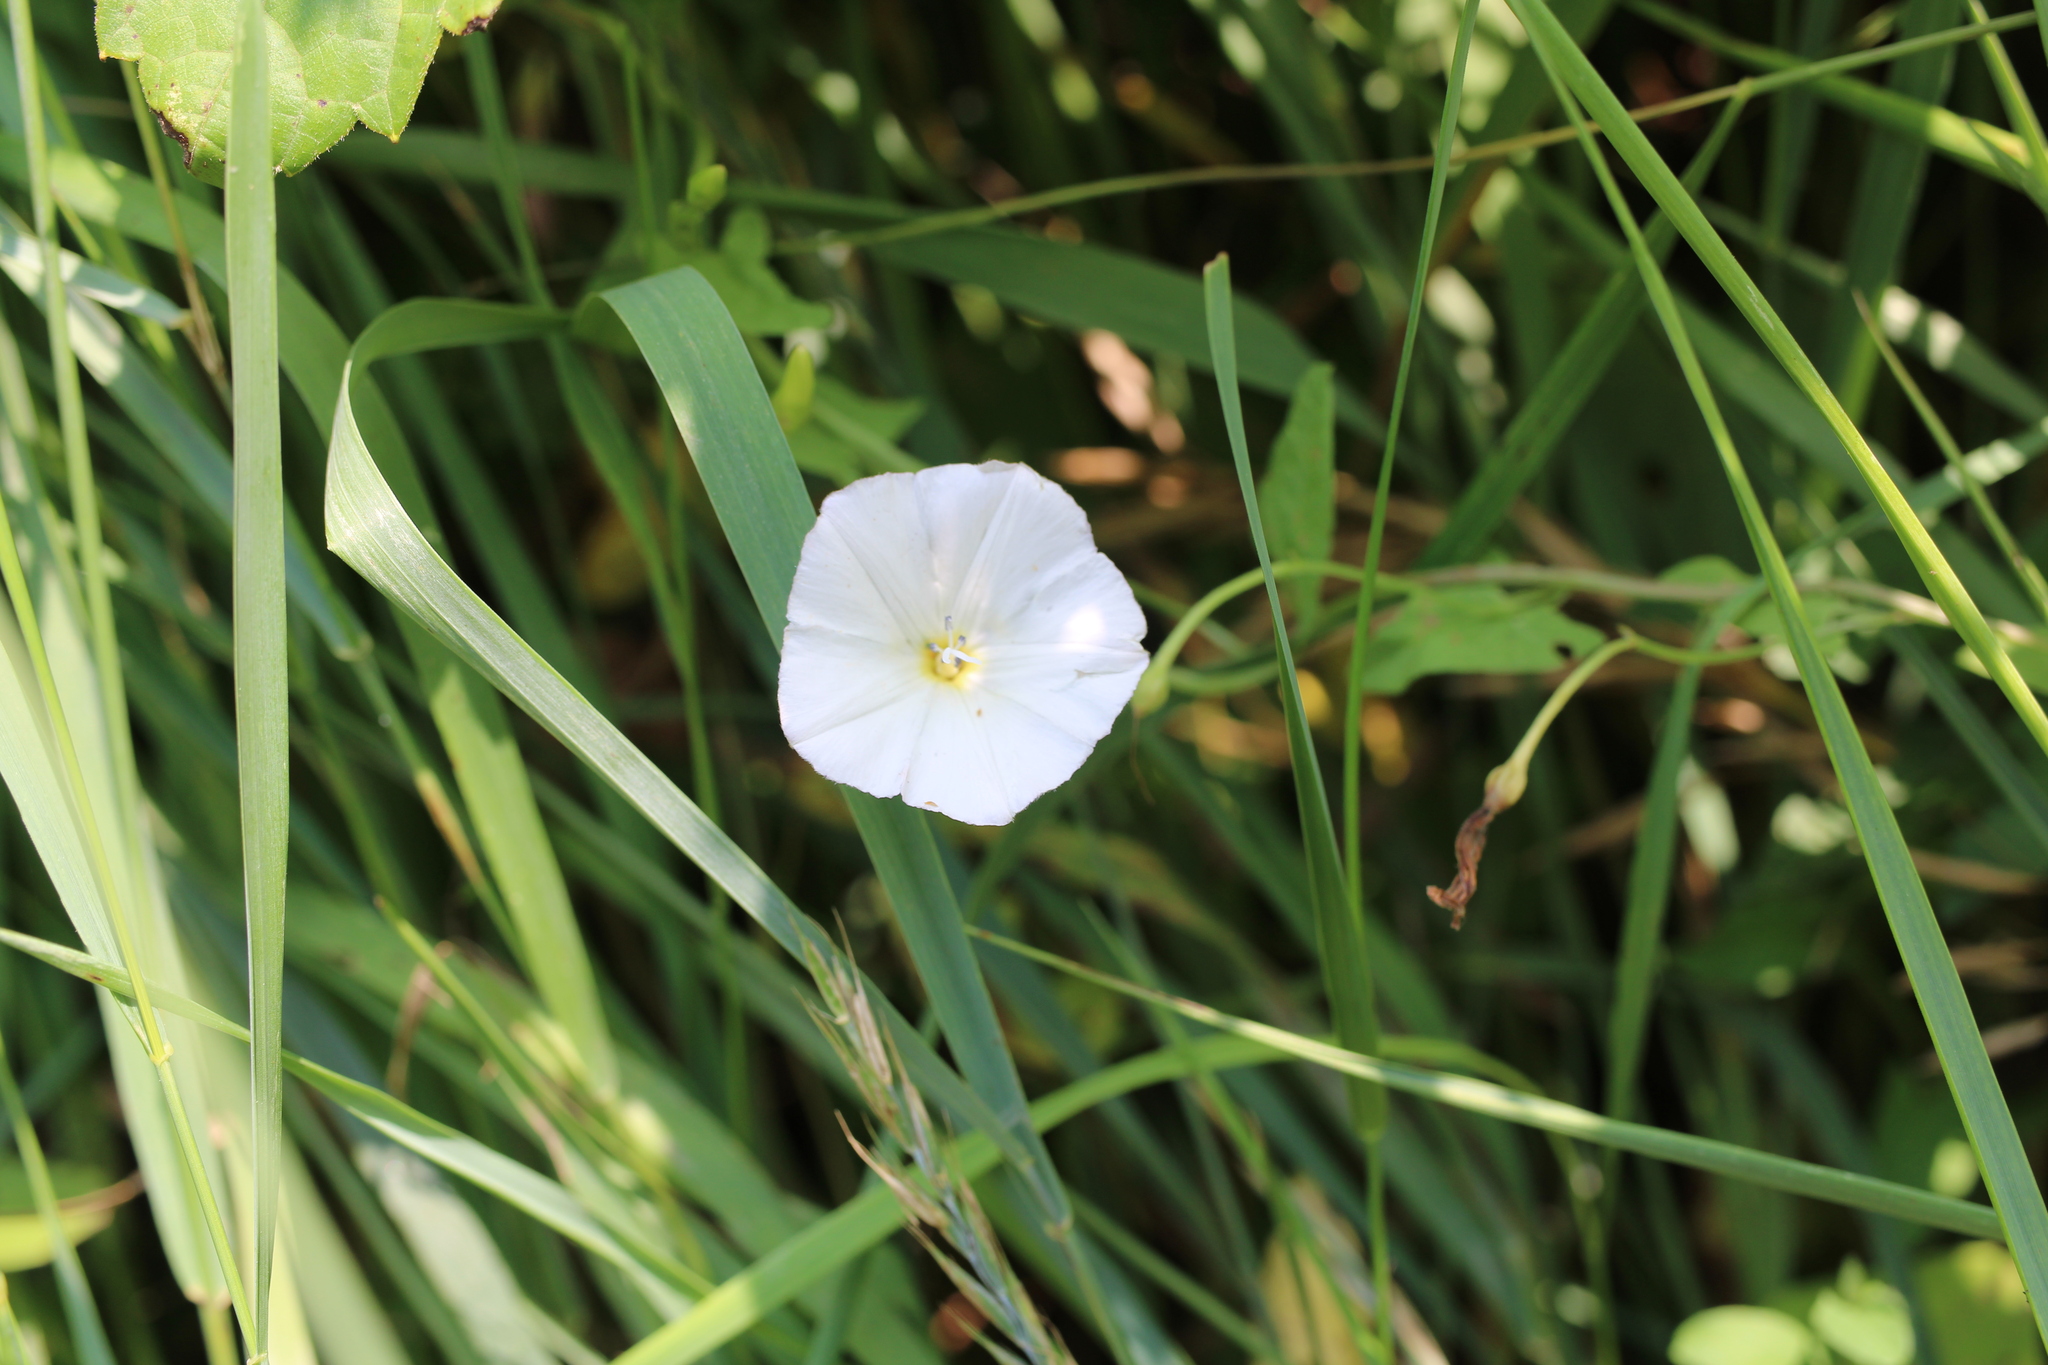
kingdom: Plantae
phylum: Tracheophyta
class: Magnoliopsida
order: Solanales
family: Convolvulaceae
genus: Convolvulus
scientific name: Convolvulus arvensis
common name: Field bindweed
